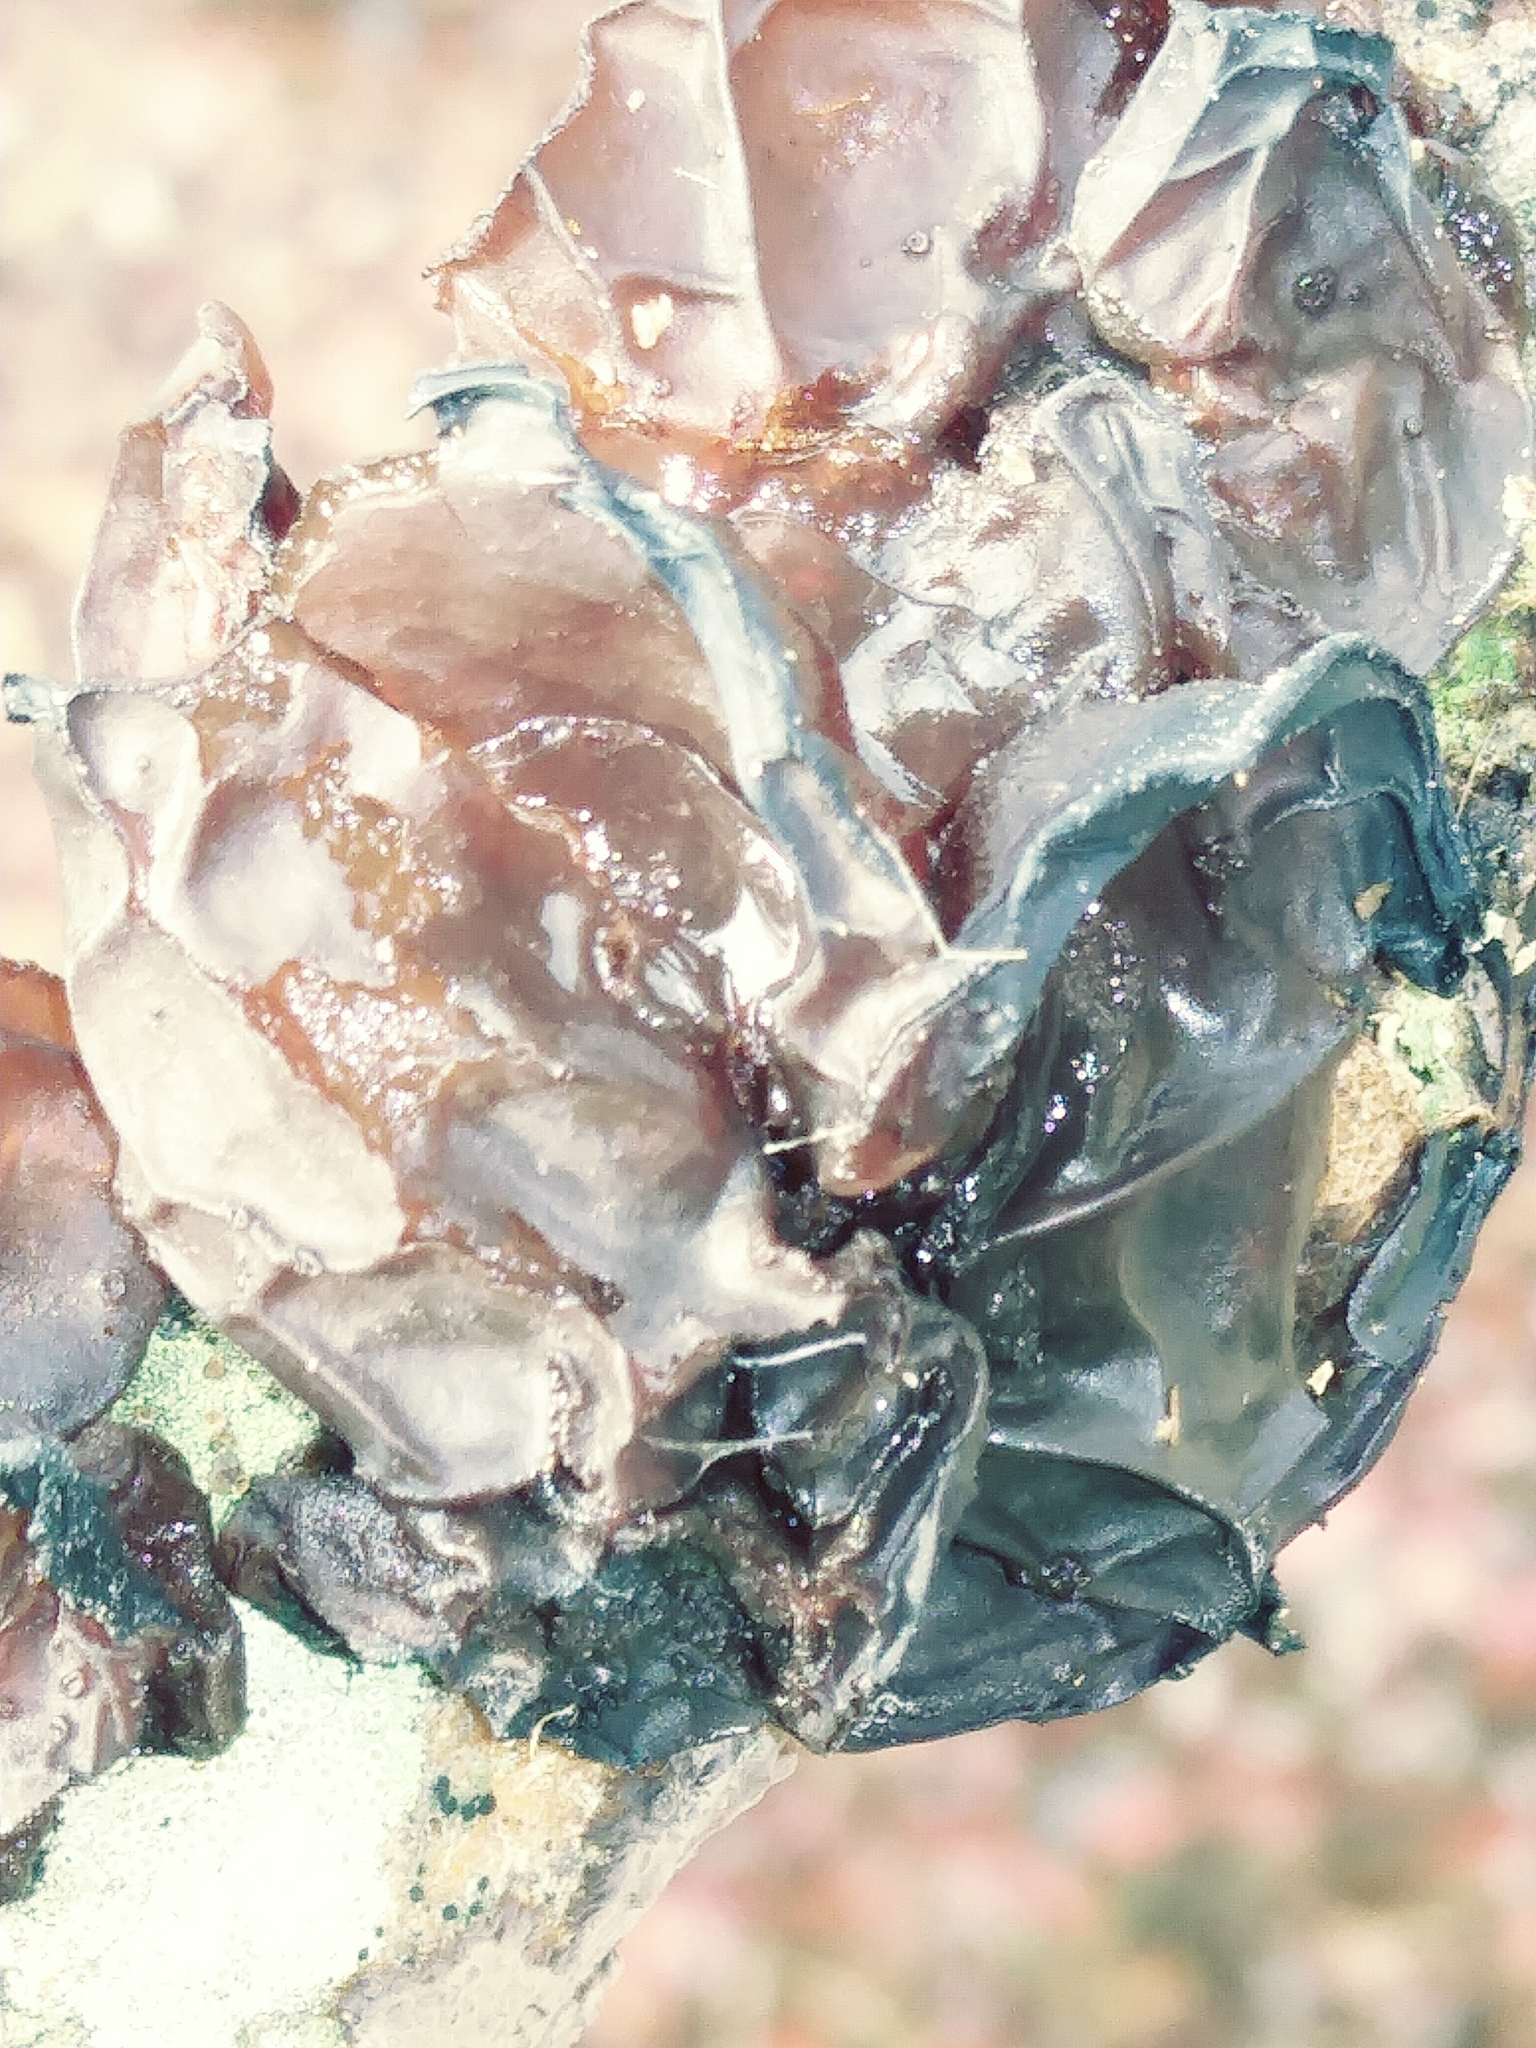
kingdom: Fungi
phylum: Basidiomycota
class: Agaricomycetes
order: Auriculariales
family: Auriculariaceae
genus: Exidia
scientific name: Exidia
